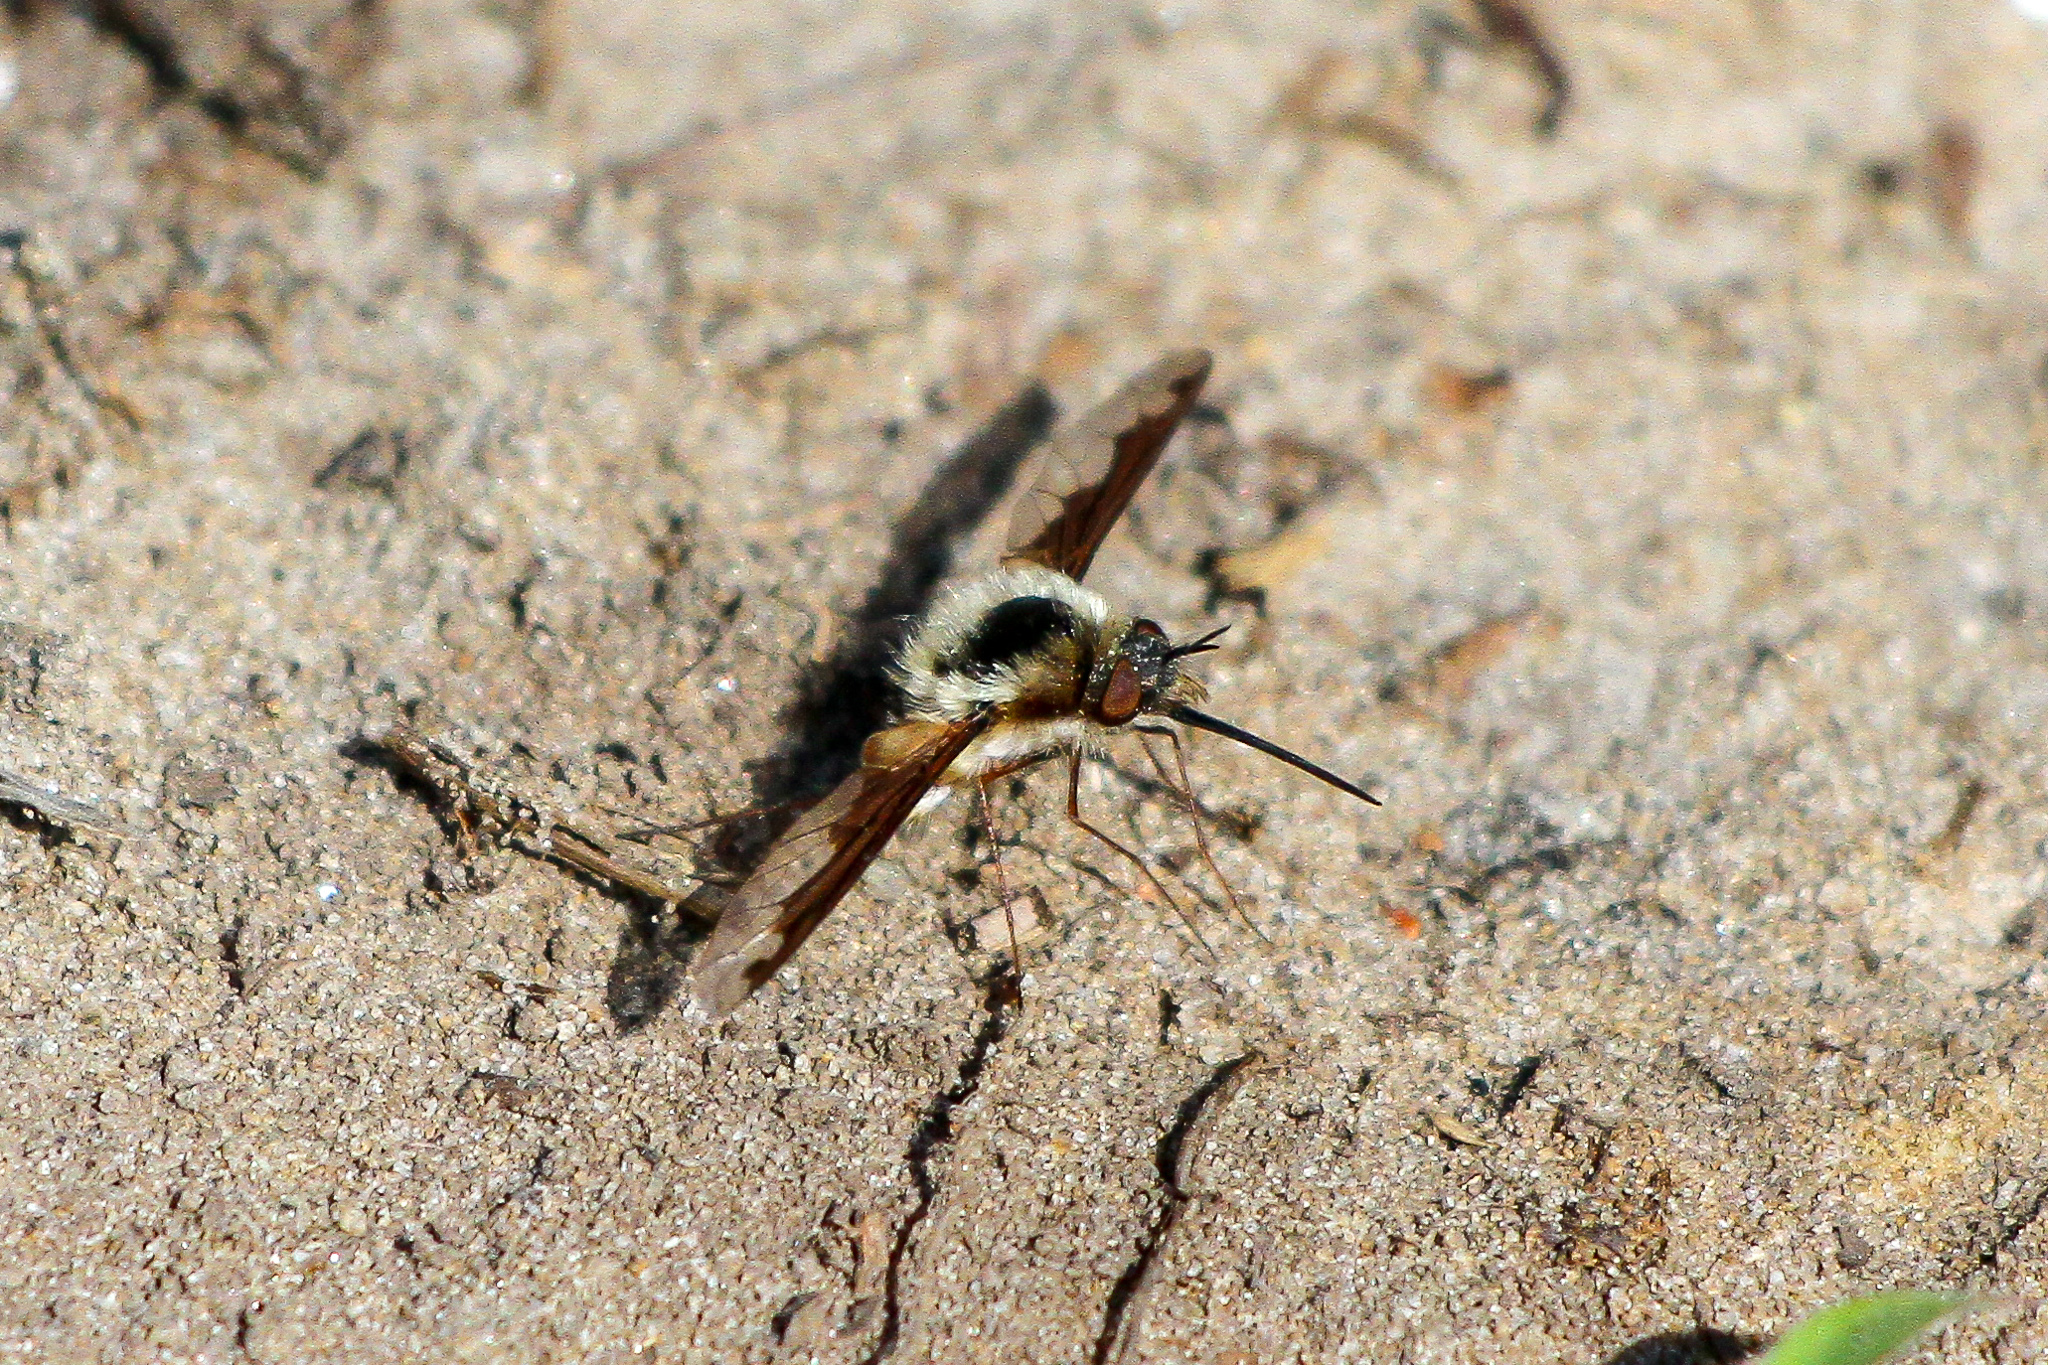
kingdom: Animalia
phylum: Arthropoda
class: Insecta
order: Diptera
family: Bombyliidae
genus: Bombylius
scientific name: Bombylius major
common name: Bee fly
